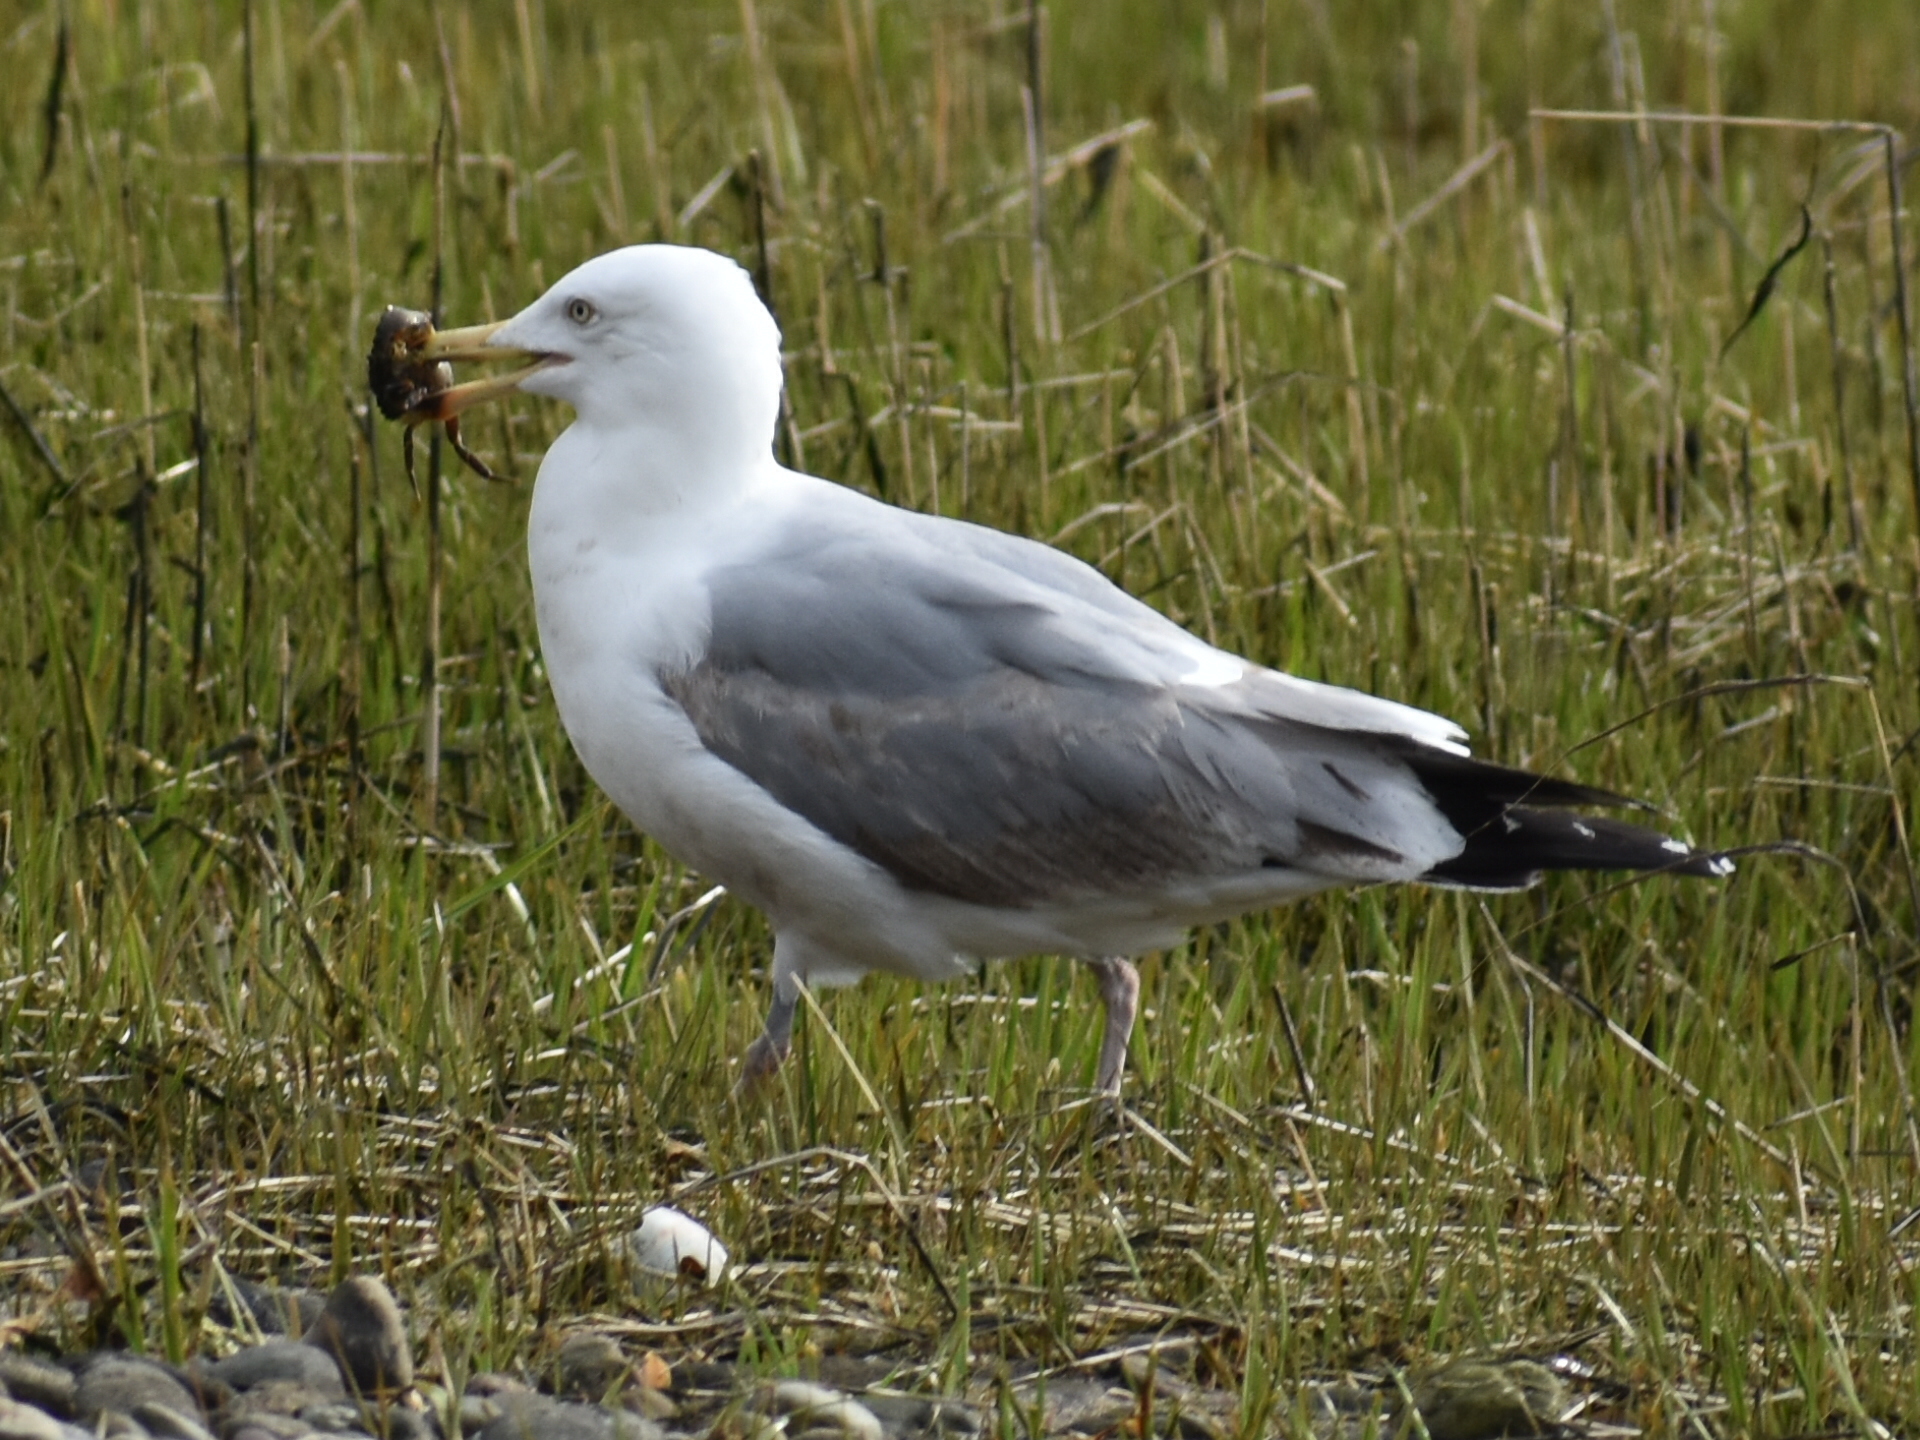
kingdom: Animalia
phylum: Chordata
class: Aves
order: Charadriiformes
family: Laridae
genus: Larus
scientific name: Larus argentatus
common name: Herring gull
